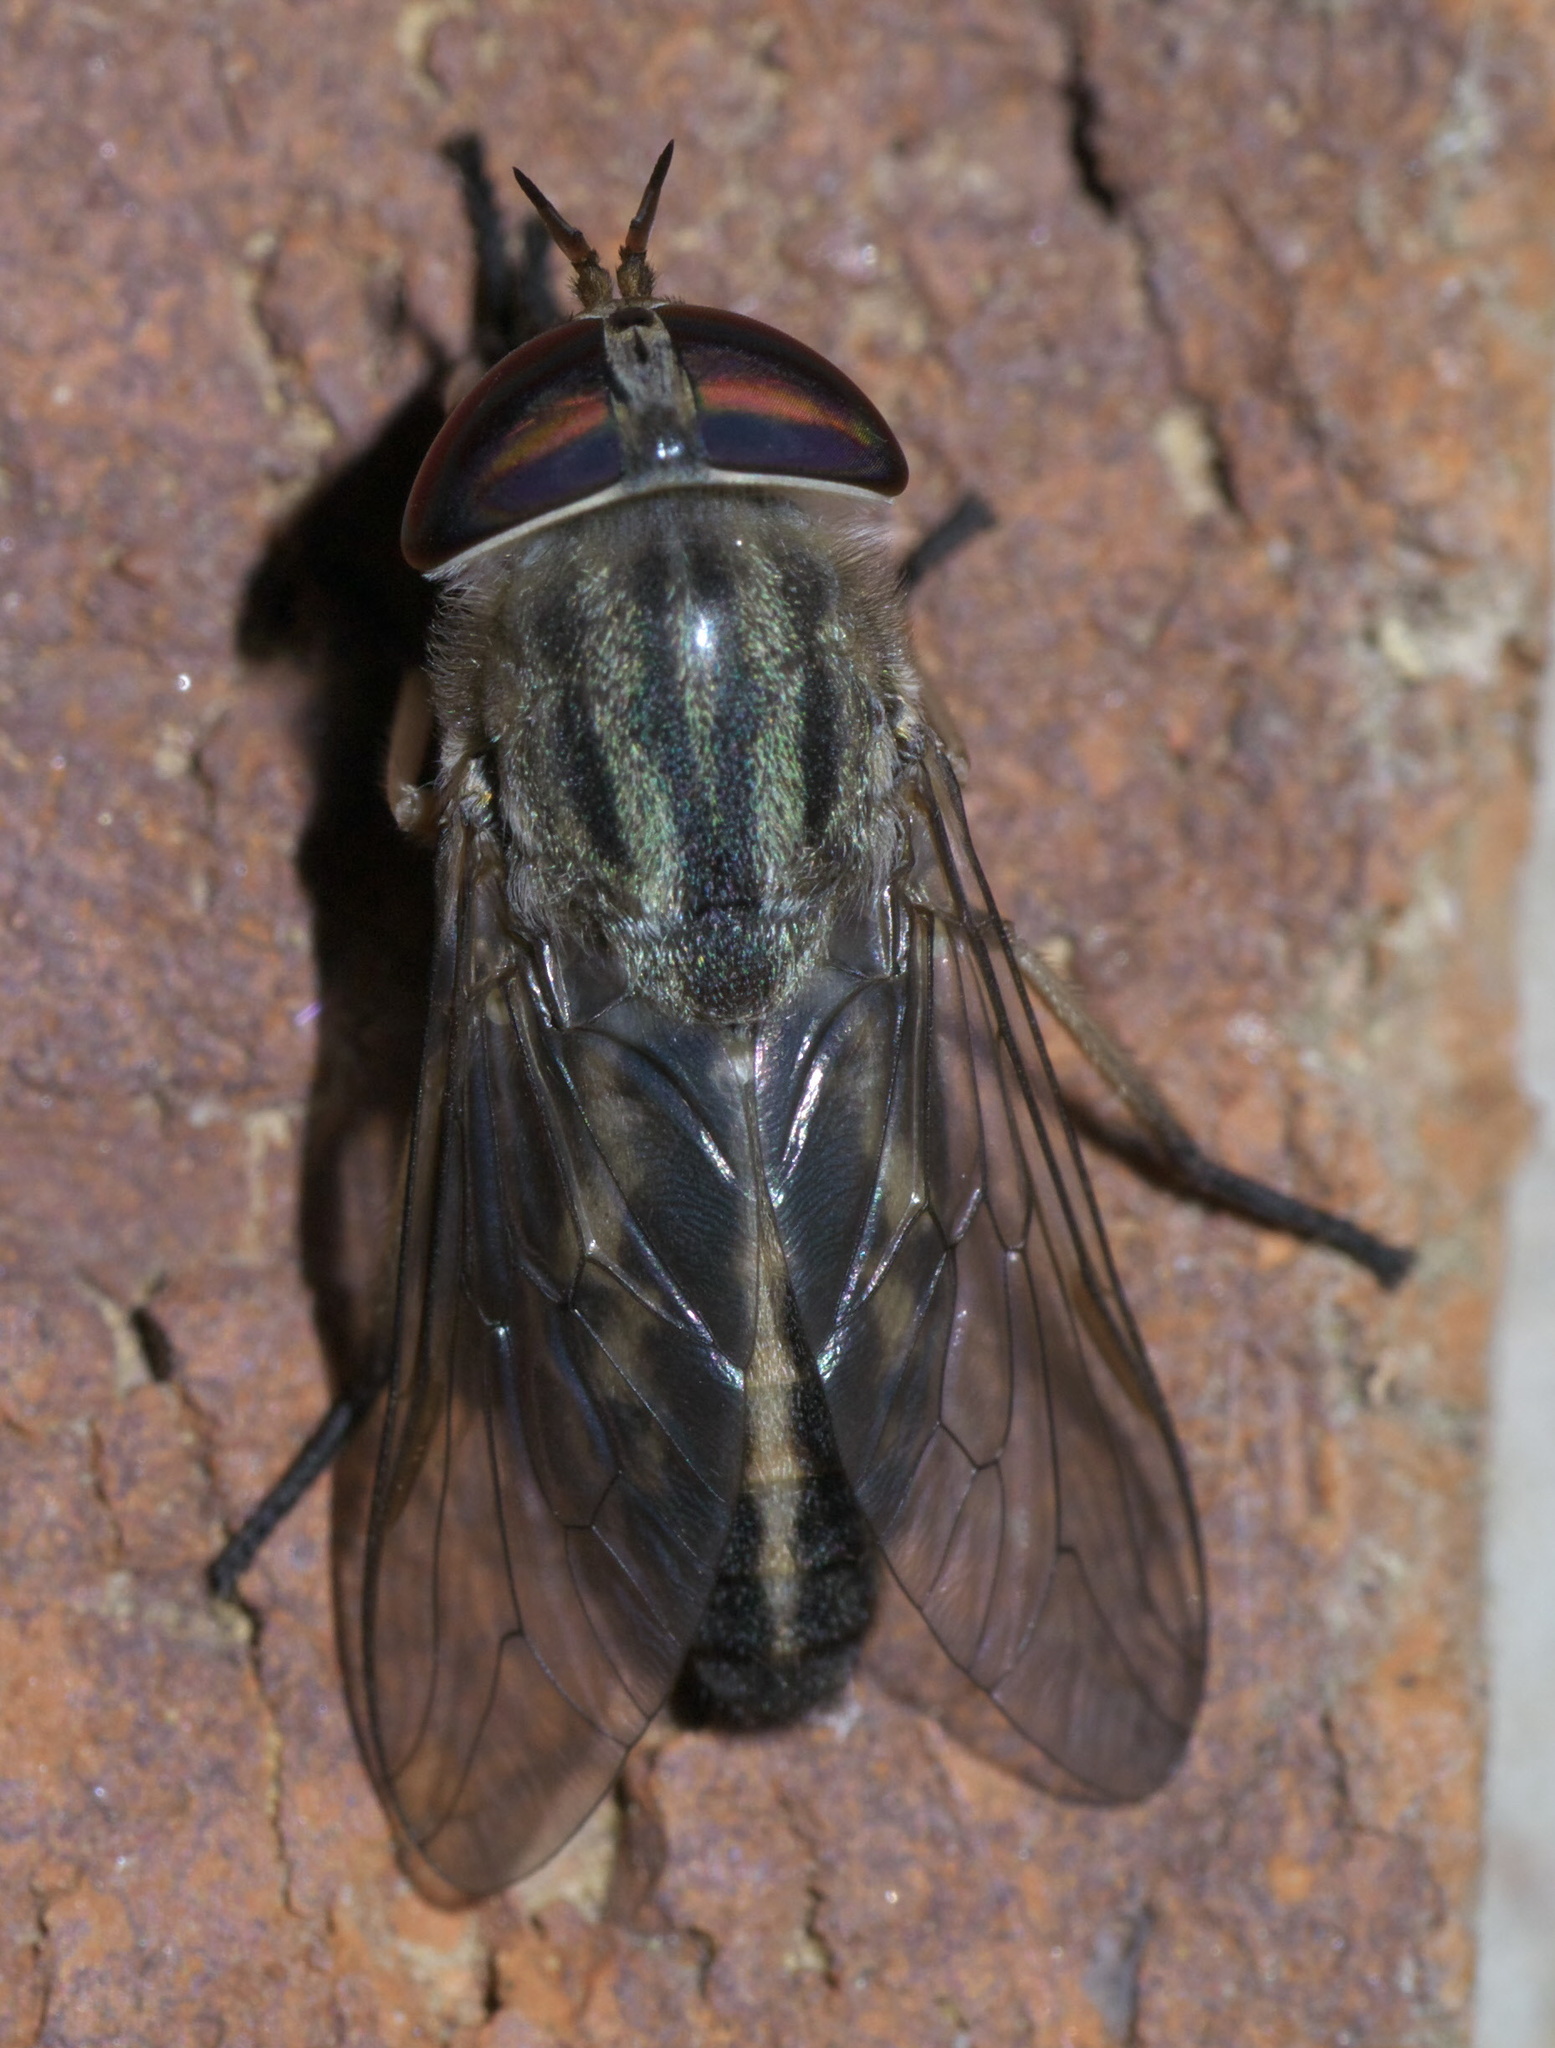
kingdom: Animalia
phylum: Arthropoda
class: Insecta
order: Diptera
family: Tabanidae
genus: Tabanus
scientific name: Tabanus subsimilis
